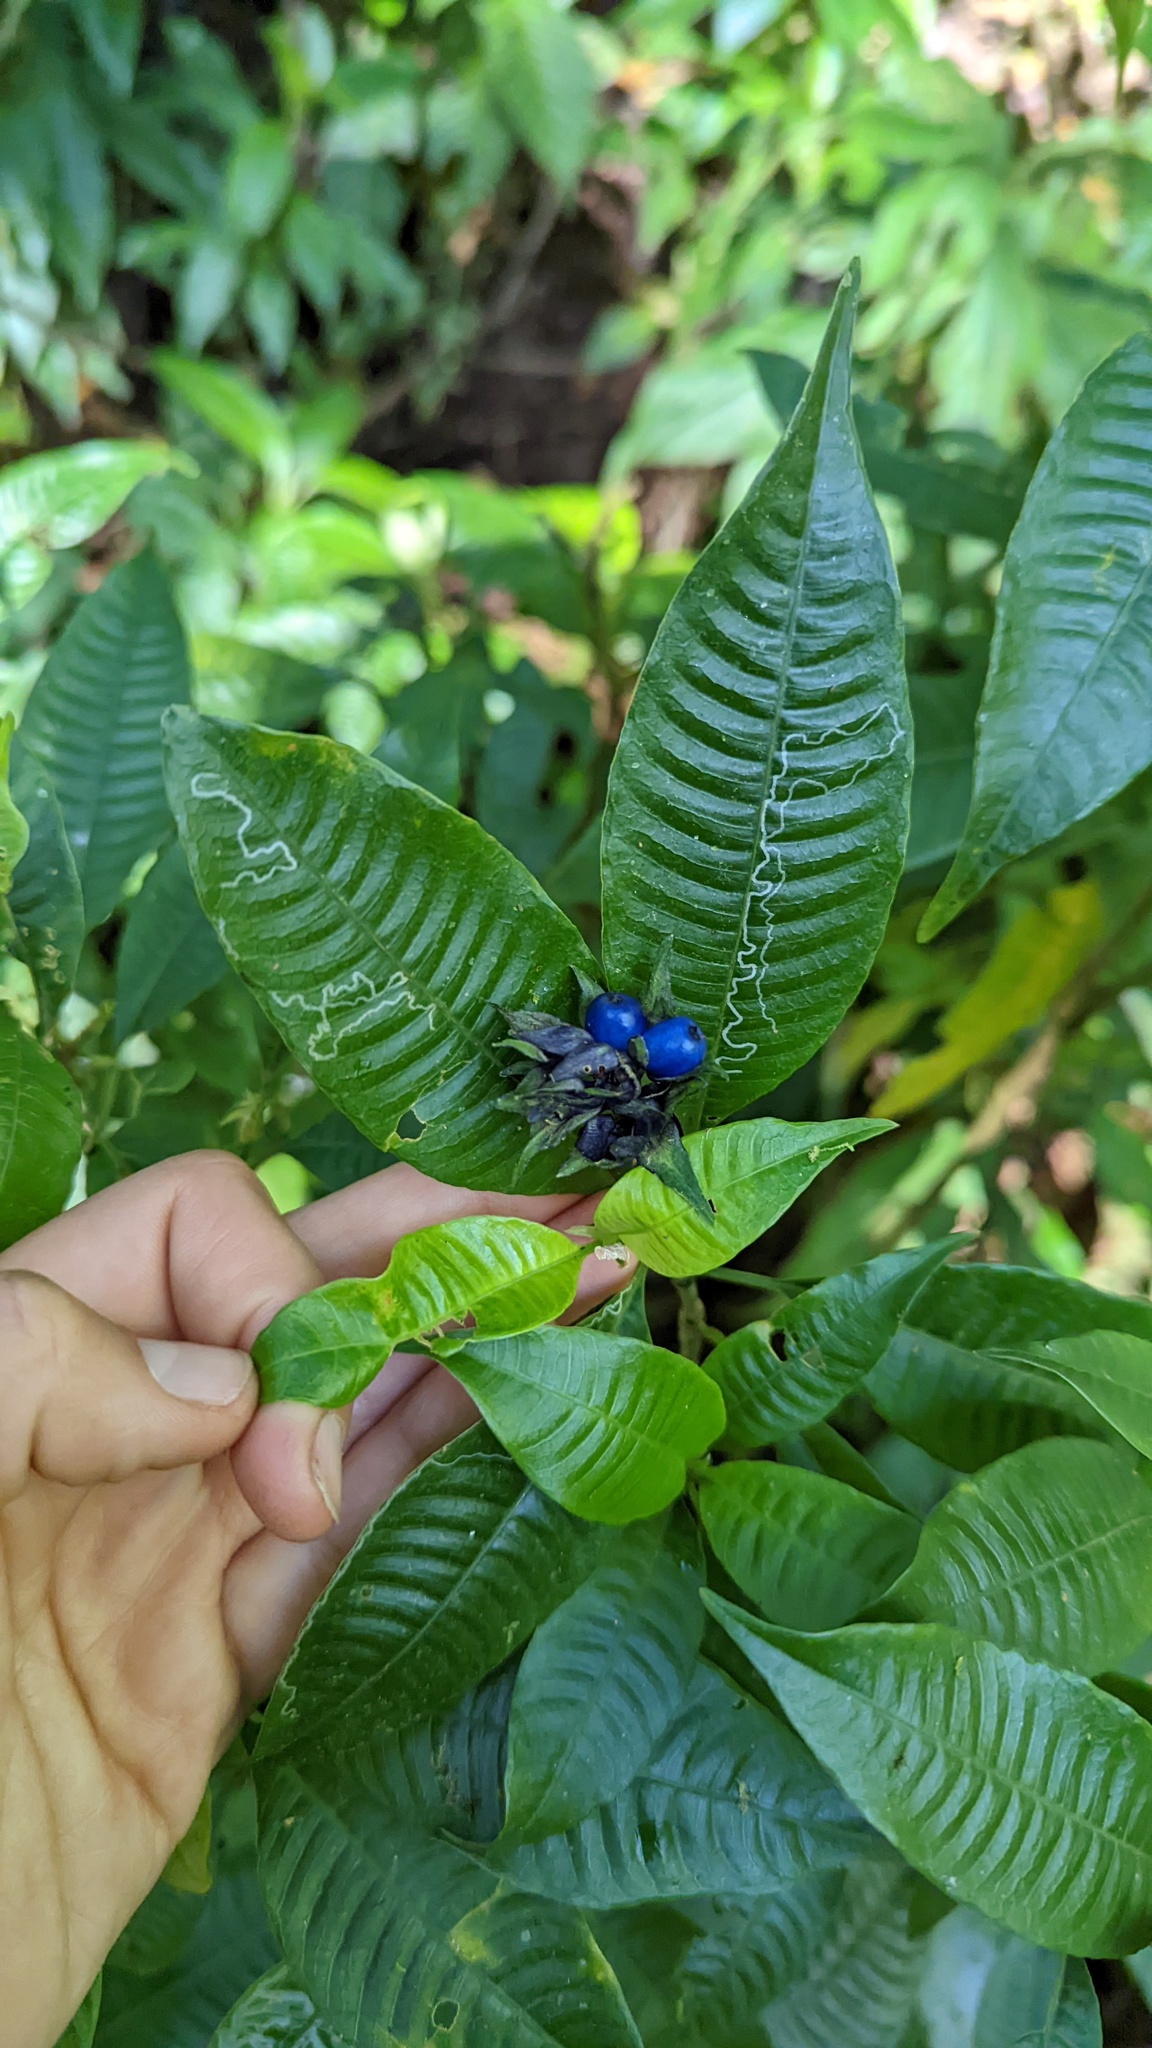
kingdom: Plantae
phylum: Tracheophyta
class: Magnoliopsida
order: Gentianales
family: Rubiaceae
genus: Palicourea
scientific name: Palicourea ramonensis
